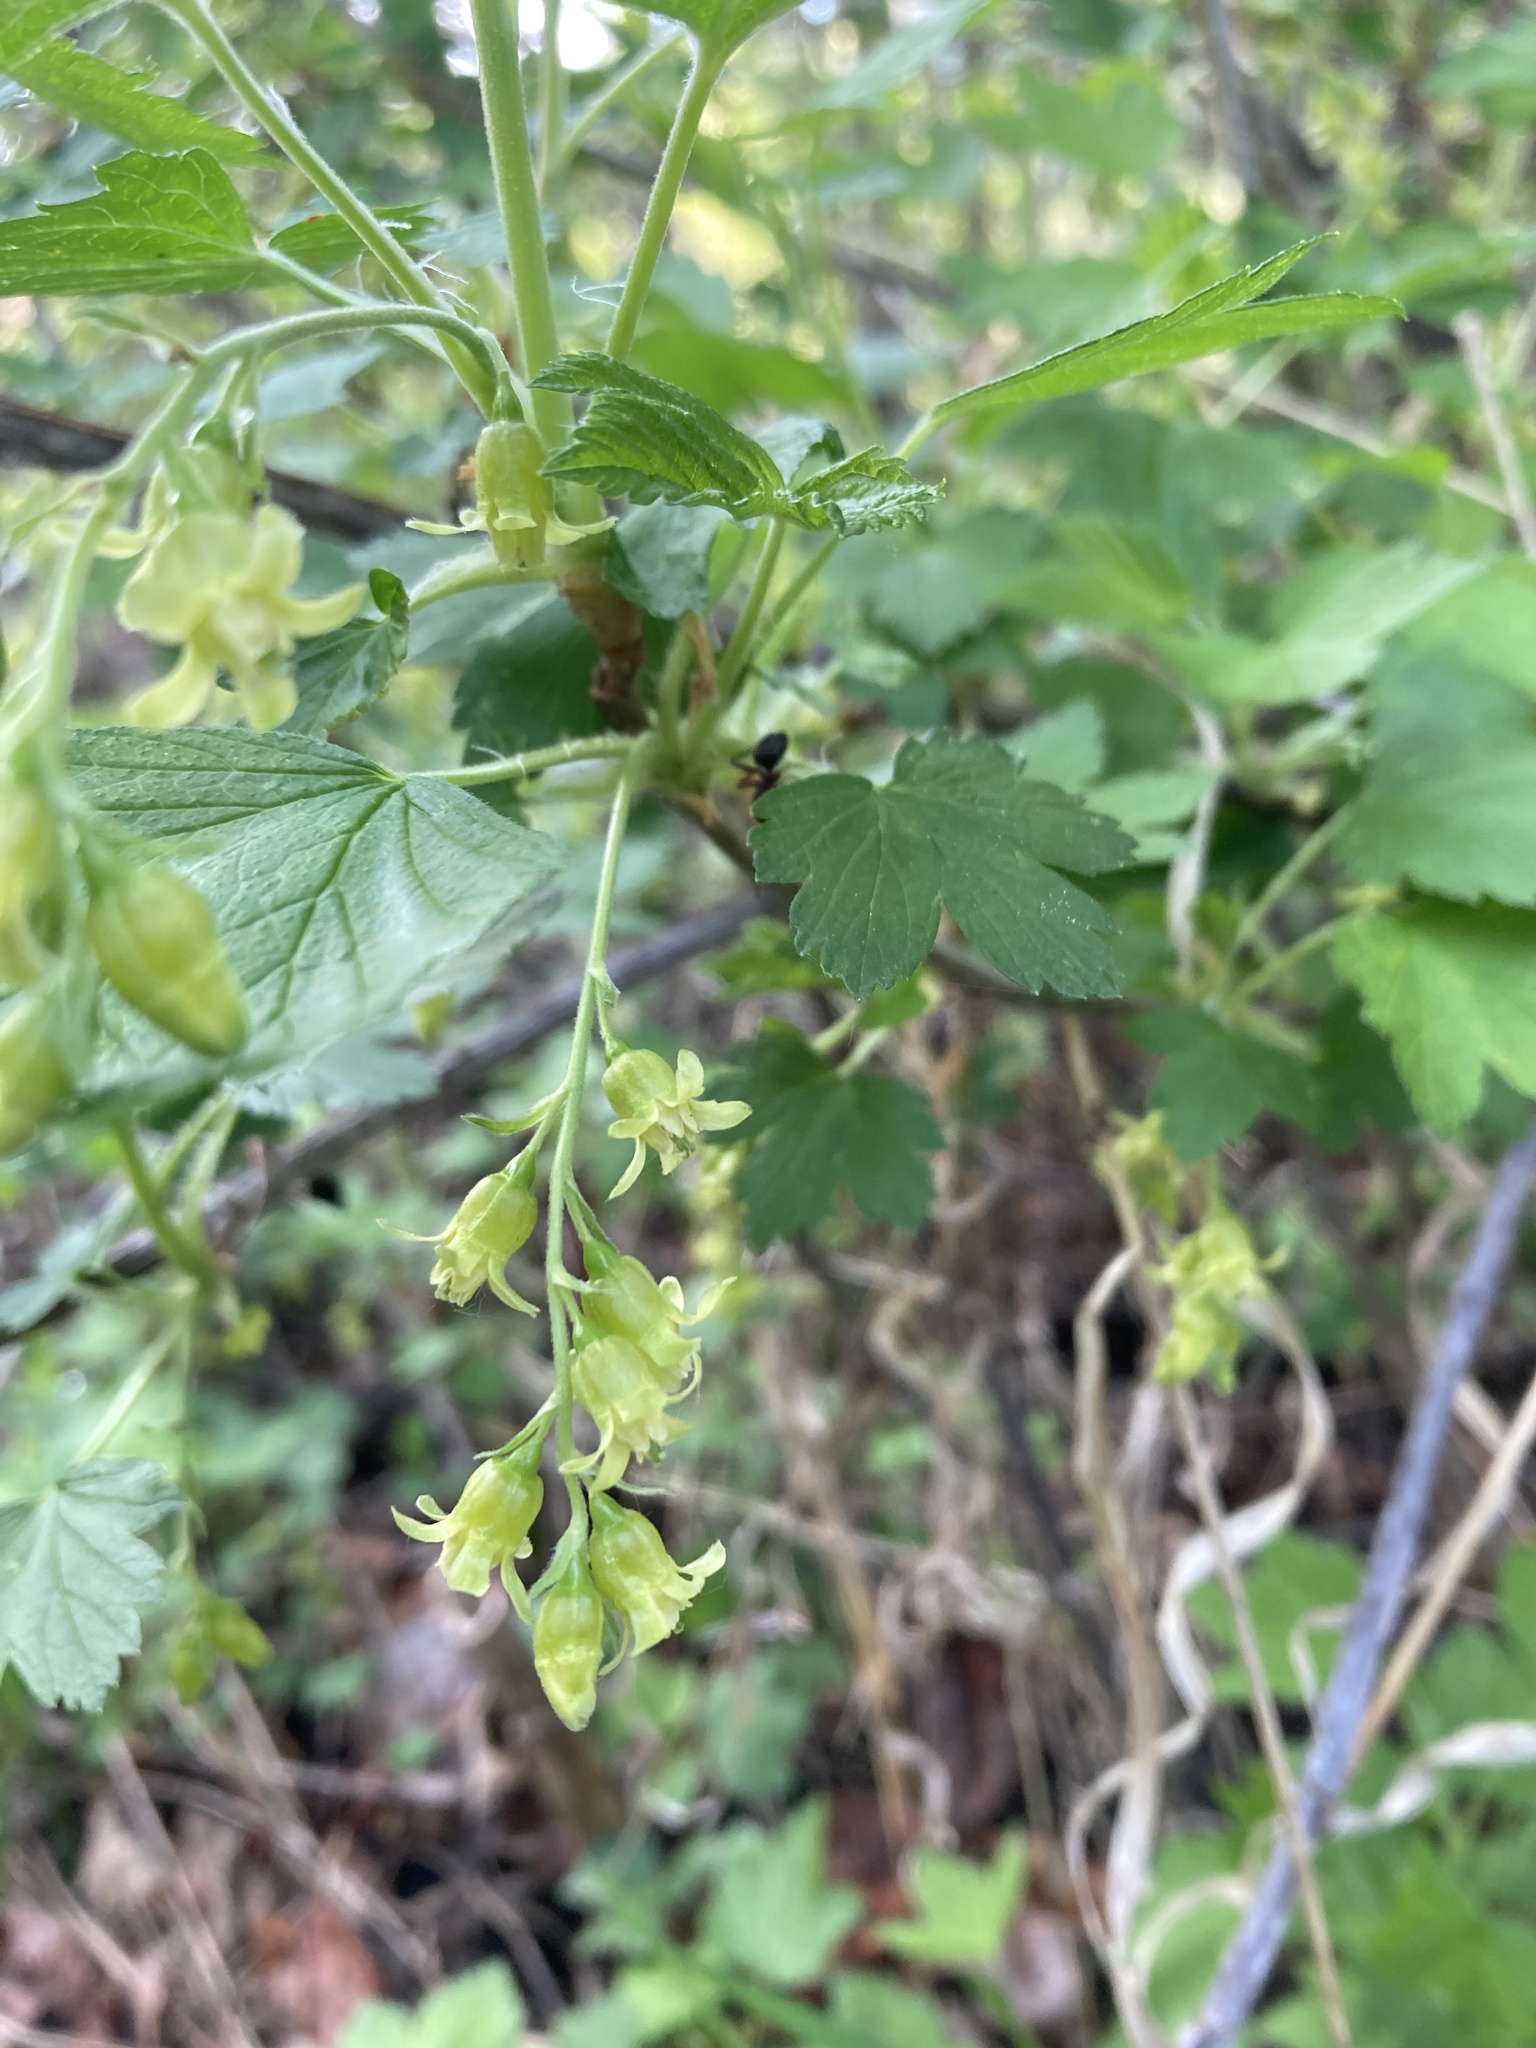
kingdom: Plantae
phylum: Tracheophyta
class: Magnoliopsida
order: Saxifragales
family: Grossulariaceae
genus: Ribes
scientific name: Ribes americanum
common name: American black currant
